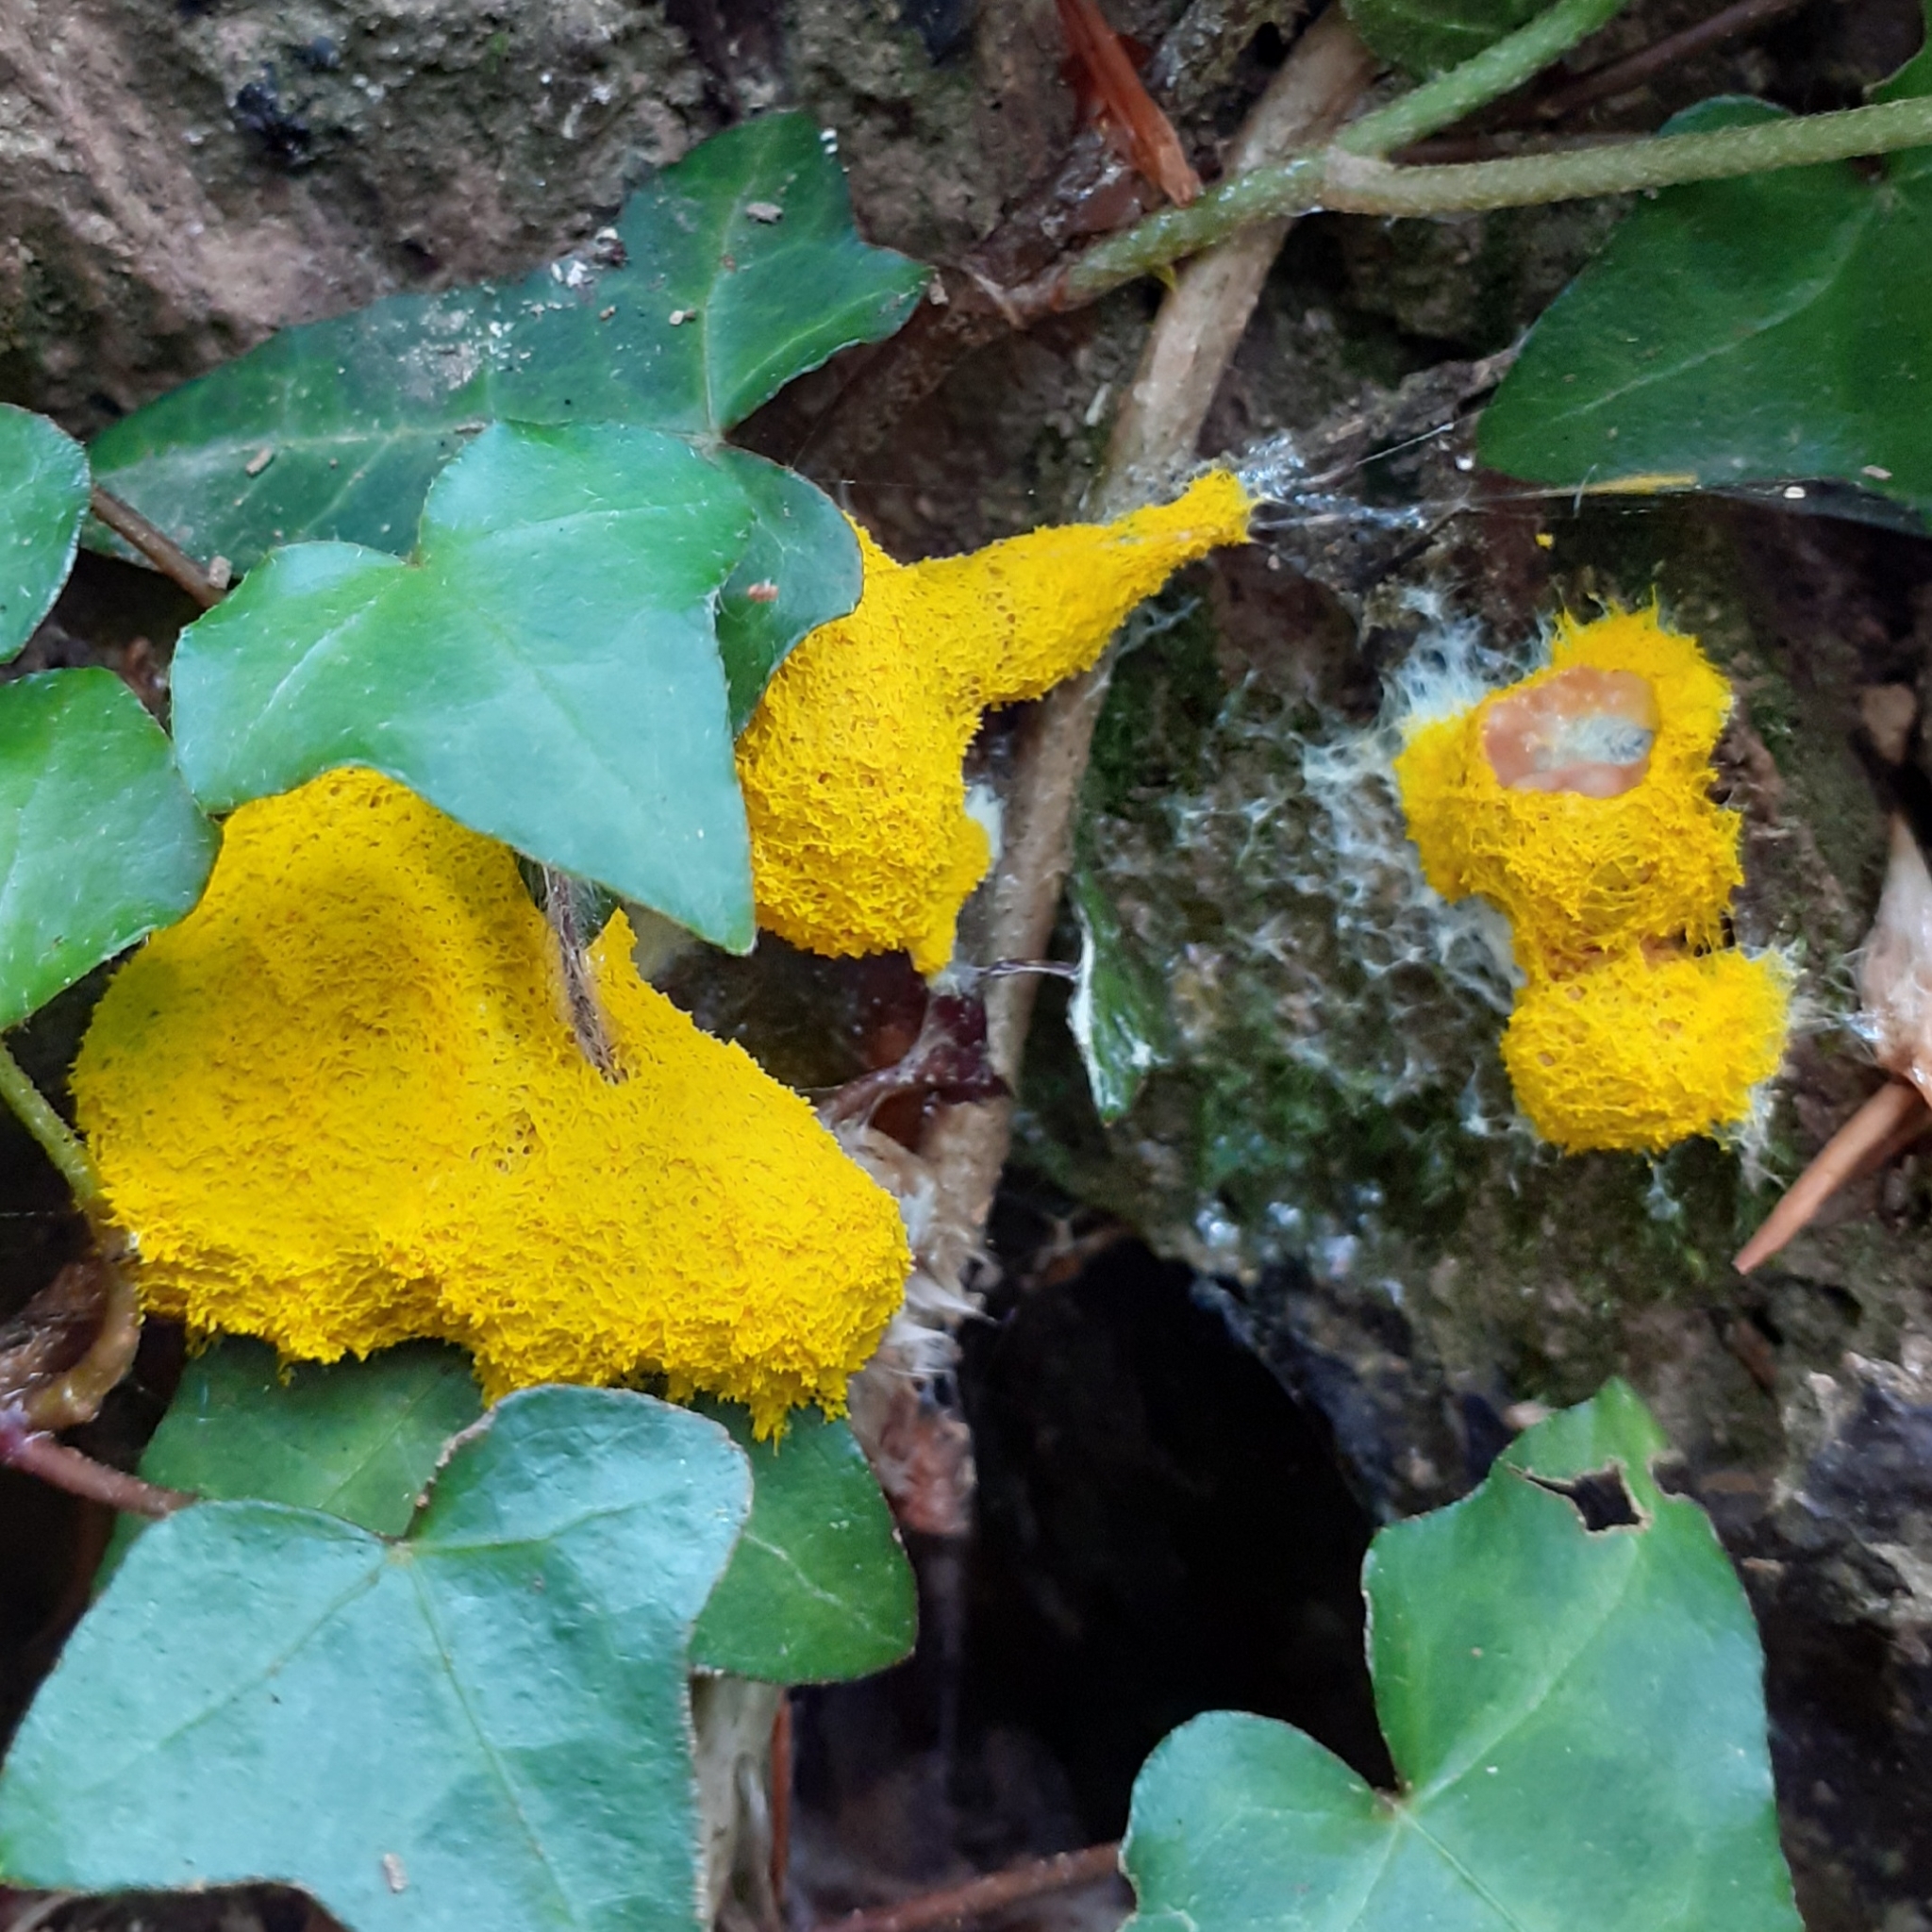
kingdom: Protozoa
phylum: Mycetozoa
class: Myxomycetes
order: Physarales
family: Physaraceae
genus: Fuligo
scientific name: Fuligo septica
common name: Dog vomit slime mold
